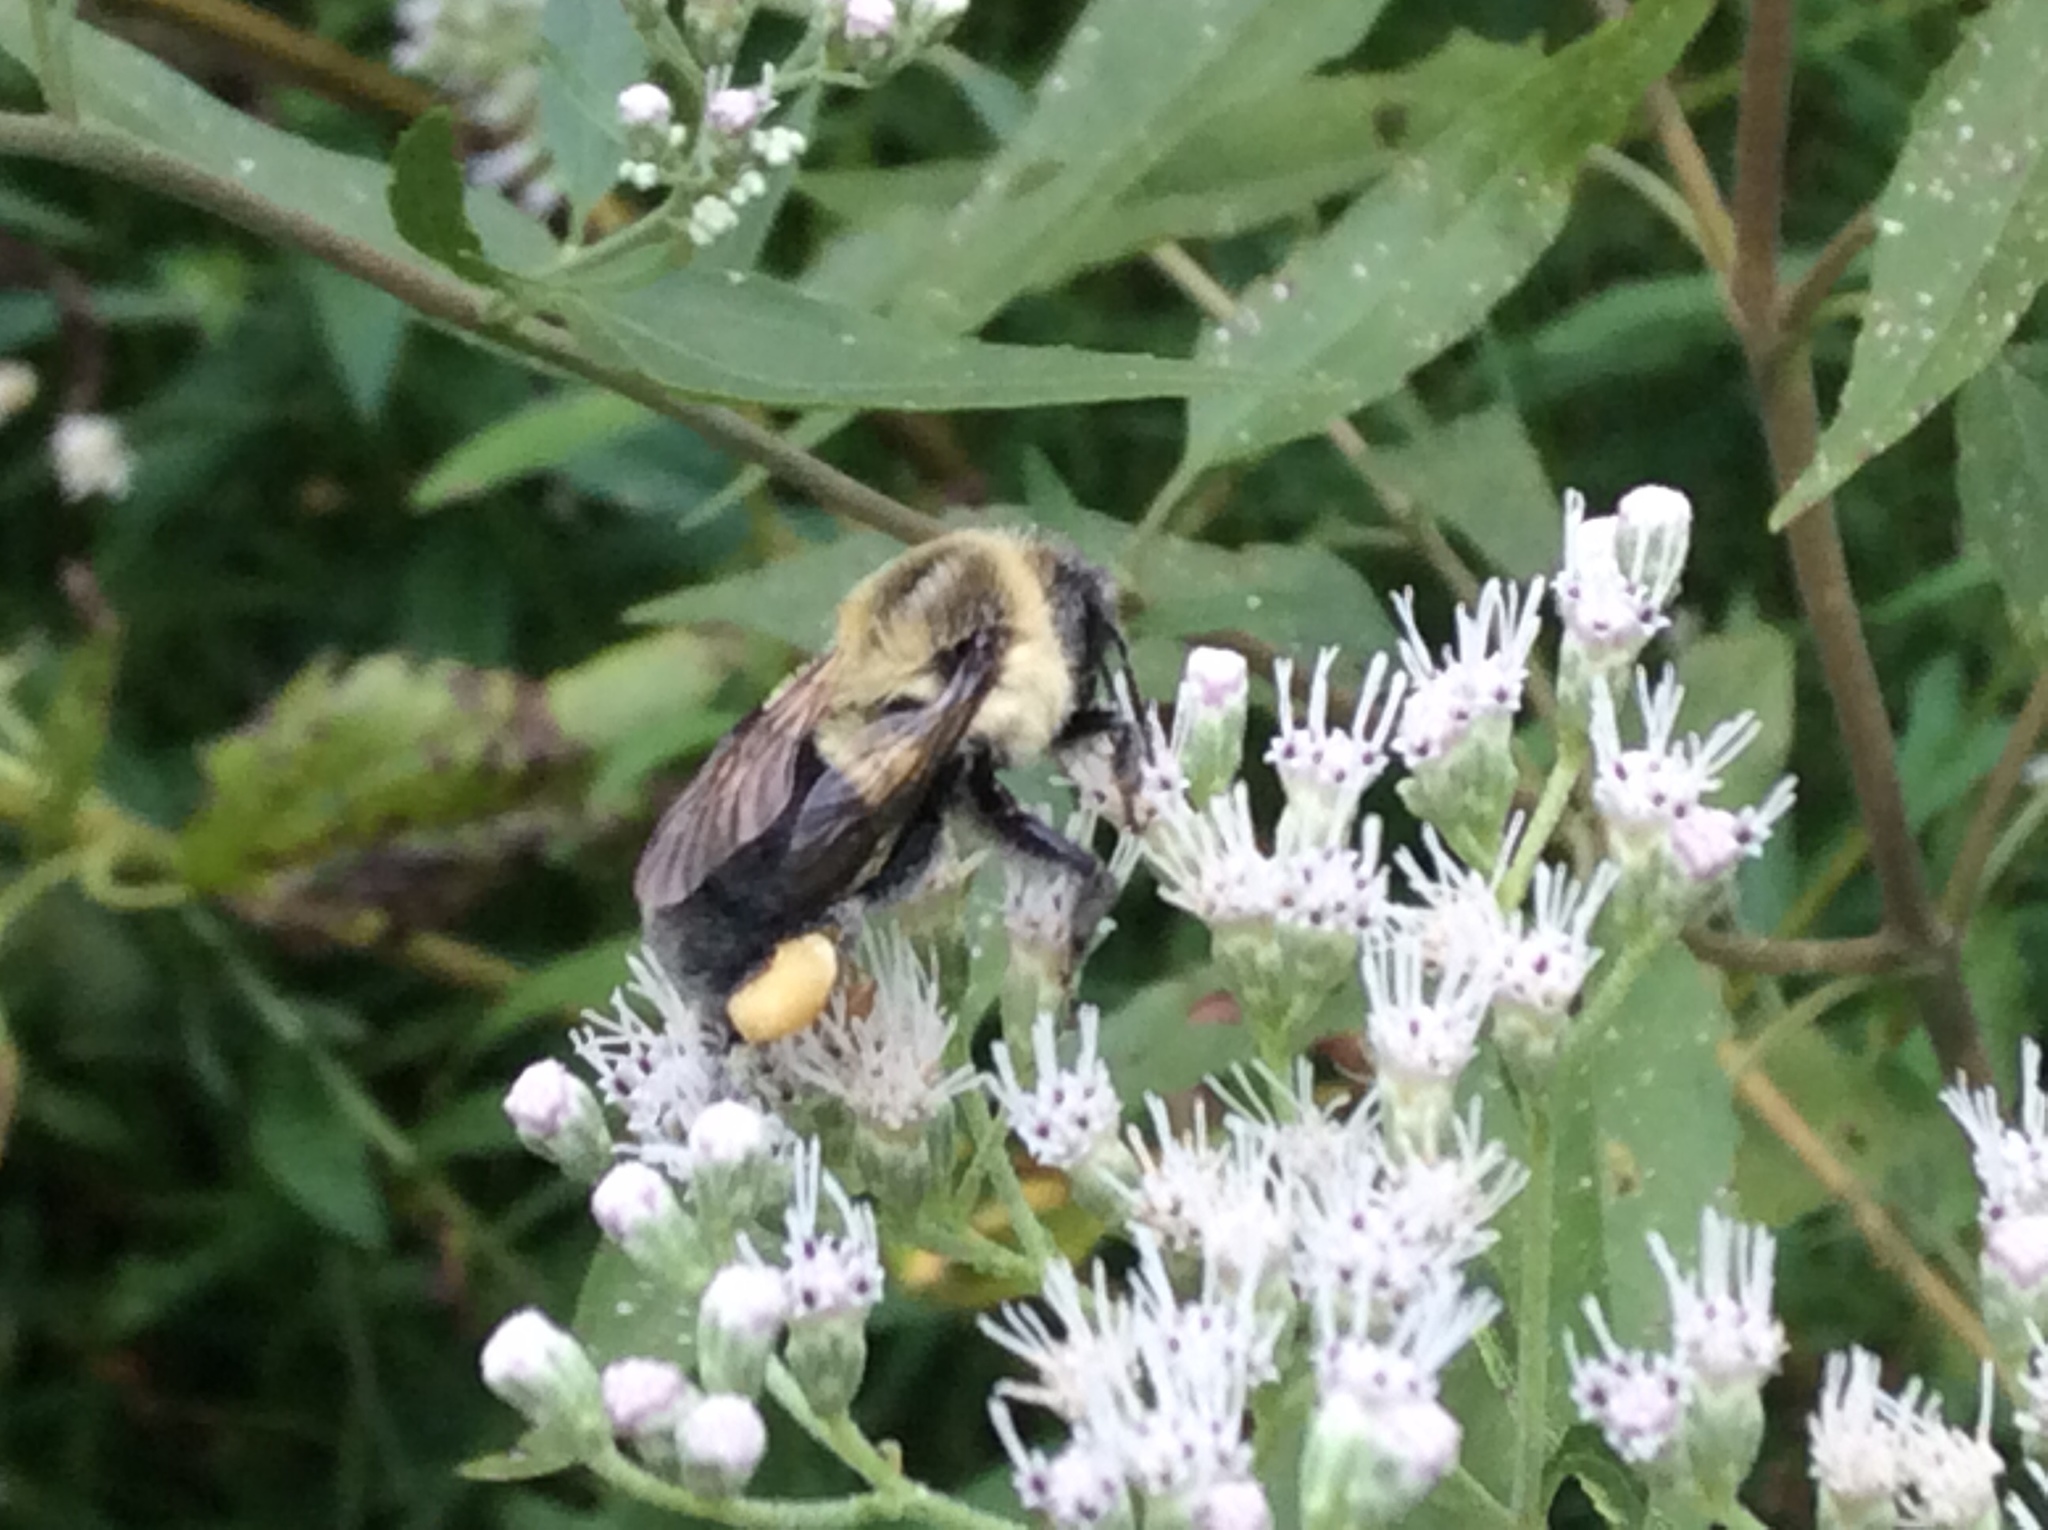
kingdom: Animalia
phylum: Arthropoda
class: Insecta
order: Hymenoptera
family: Apidae
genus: Bombus
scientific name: Bombus impatiens
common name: Common eastern bumble bee
